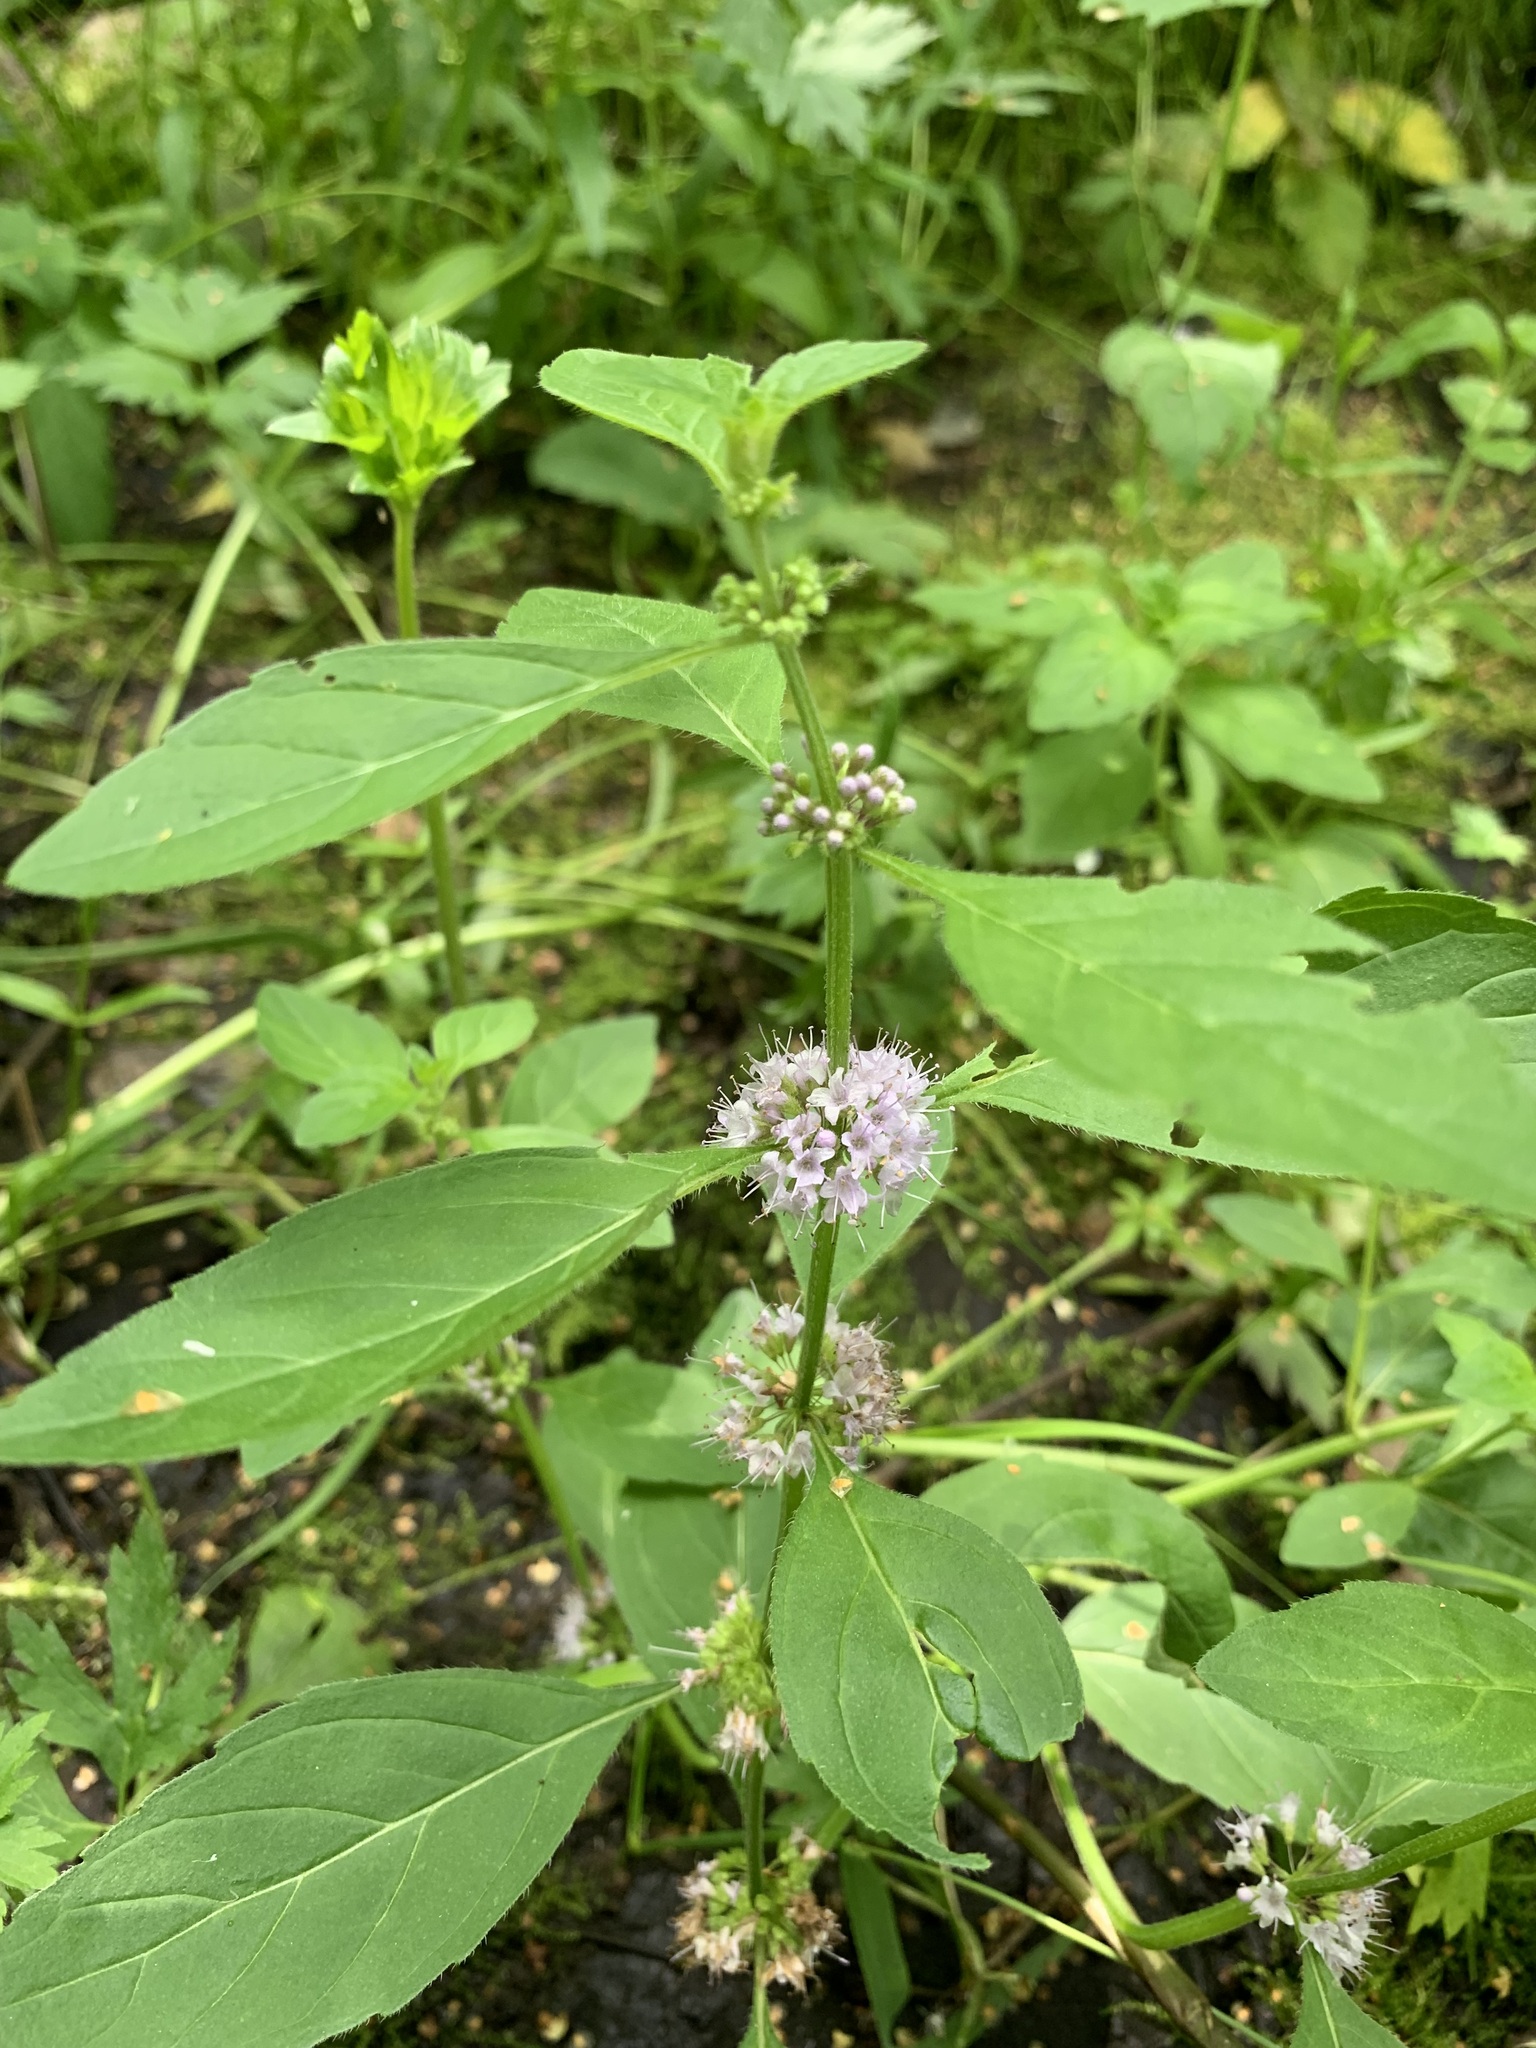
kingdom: Plantae
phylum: Tracheophyta
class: Magnoliopsida
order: Lamiales
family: Lamiaceae
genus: Mentha
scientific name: Mentha arvensis
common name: Corn mint
